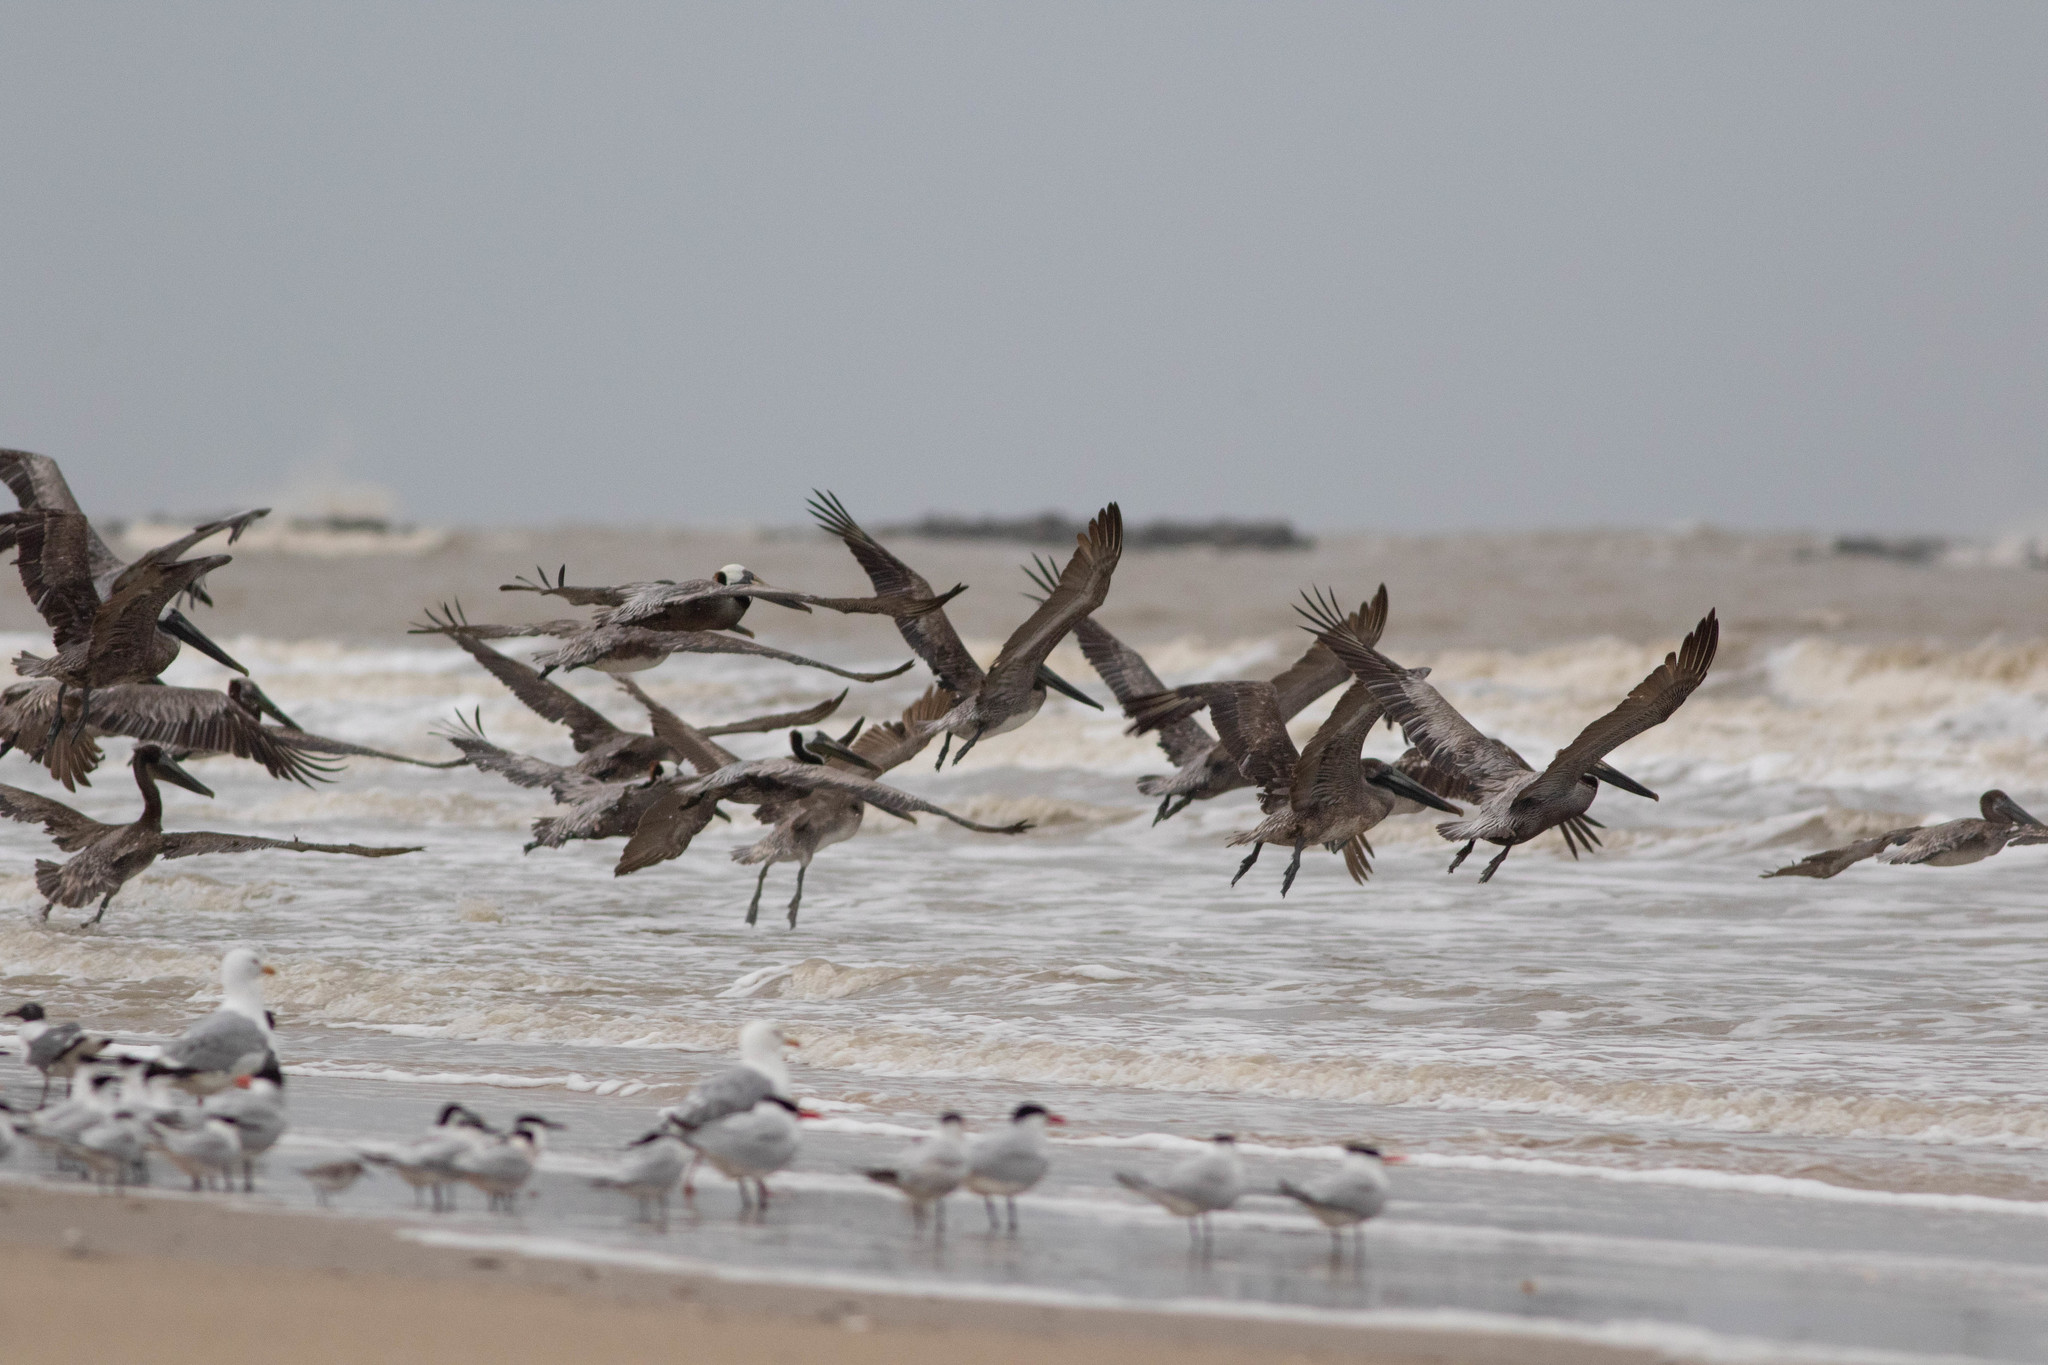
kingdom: Animalia
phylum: Chordata
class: Aves
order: Pelecaniformes
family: Pelecanidae
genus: Pelecanus
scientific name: Pelecanus occidentalis
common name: Brown pelican
